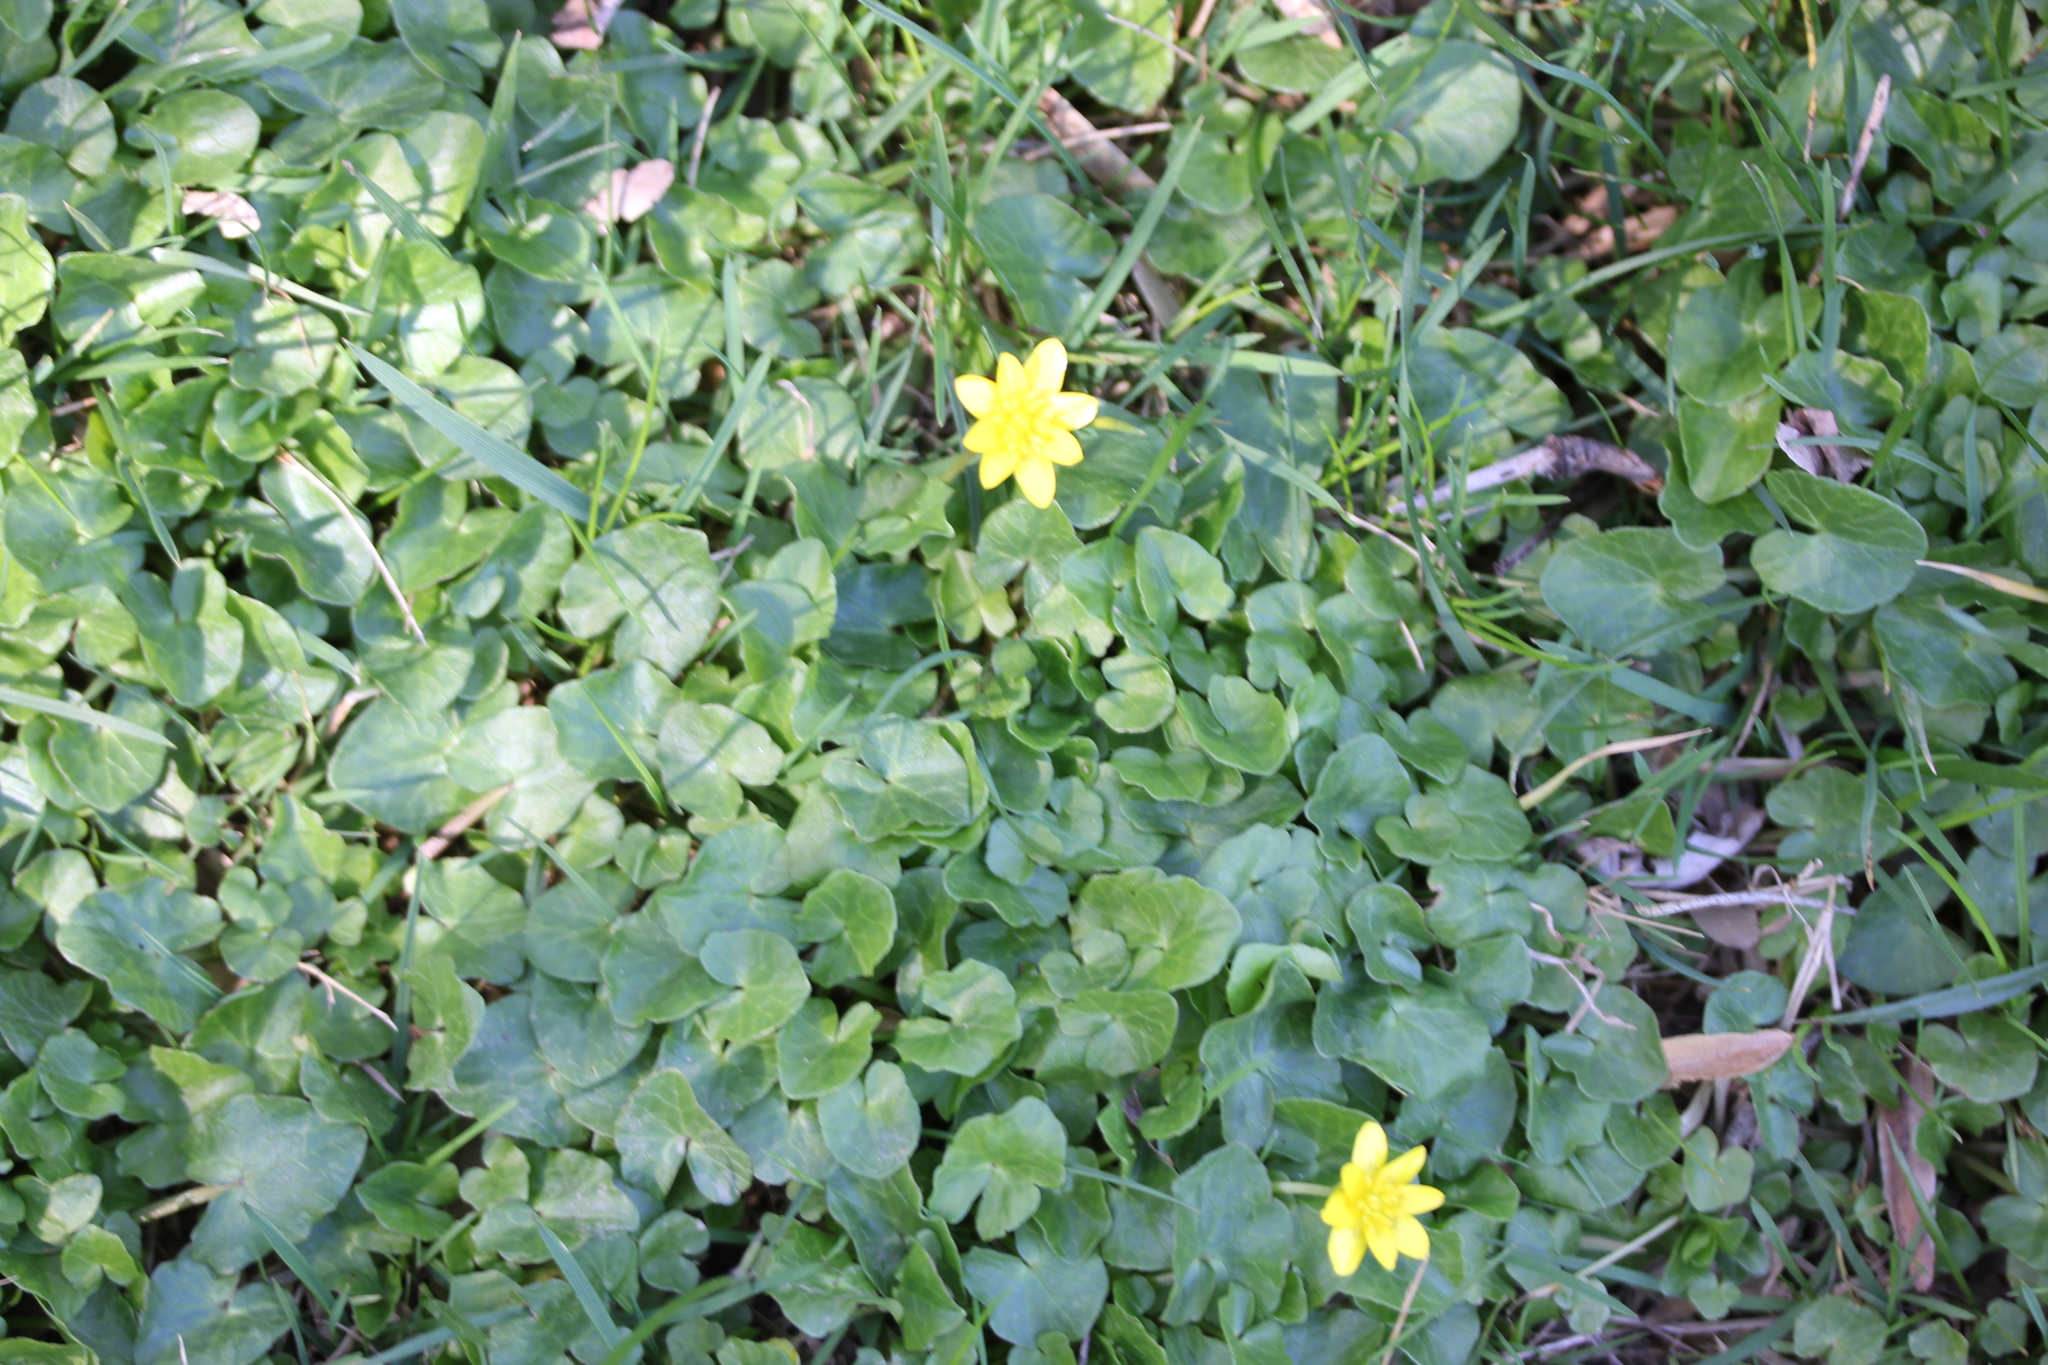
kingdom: Plantae
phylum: Tracheophyta
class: Magnoliopsida
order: Ranunculales
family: Ranunculaceae
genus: Ficaria
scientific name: Ficaria verna
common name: Lesser celandine
